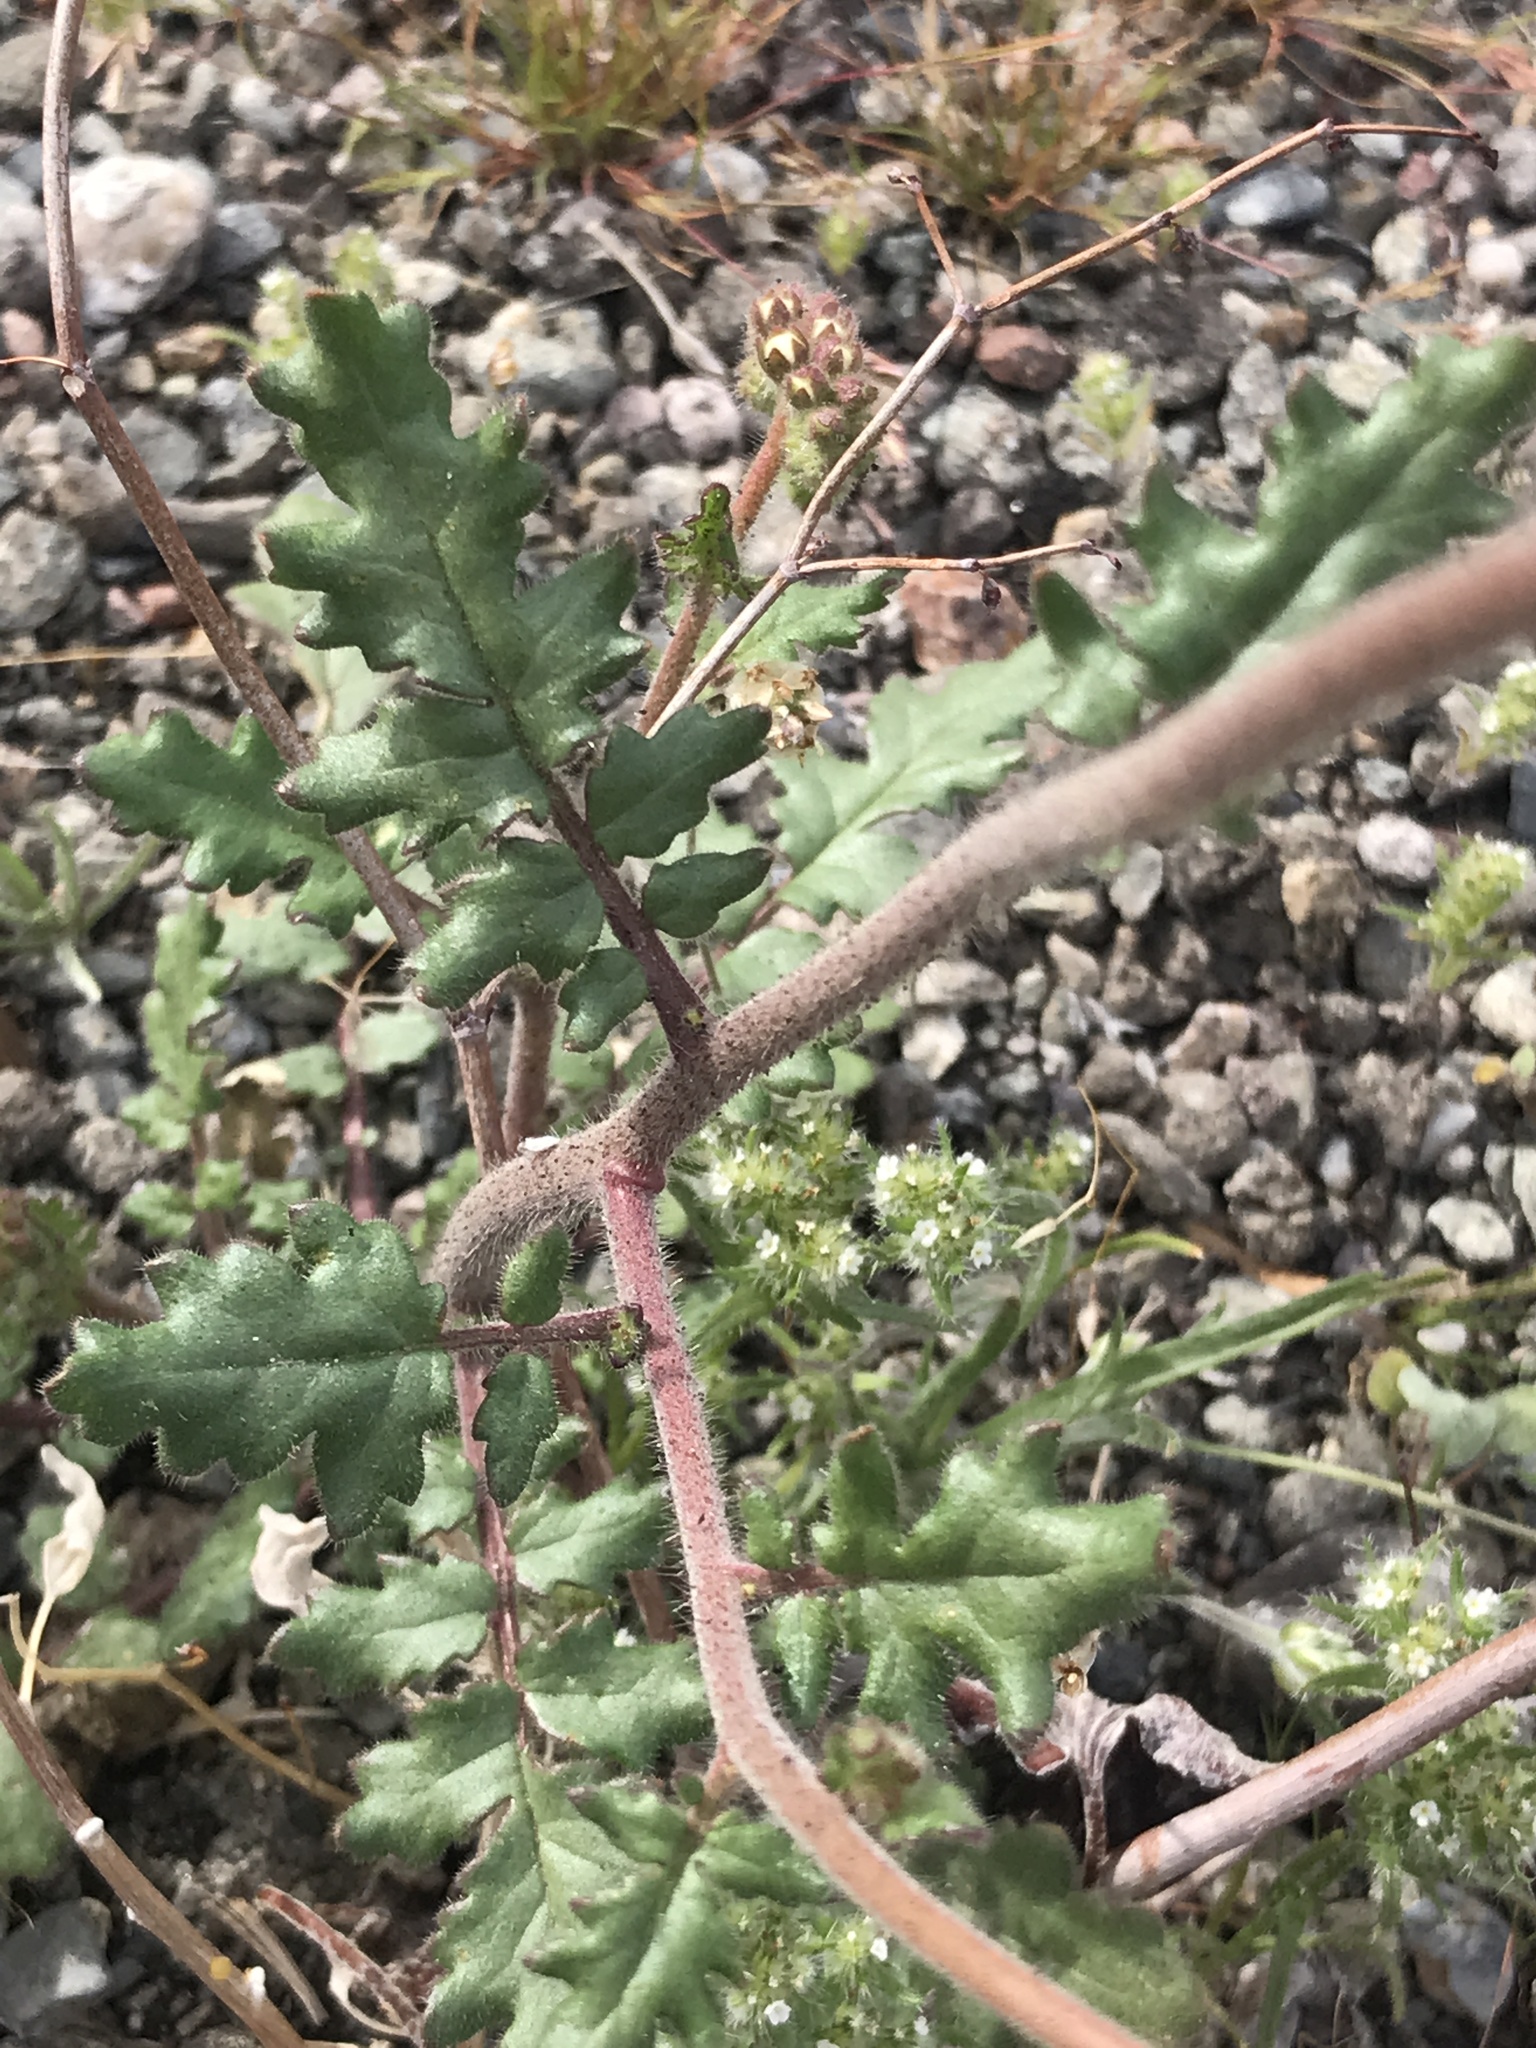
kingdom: Plantae
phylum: Tracheophyta
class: Magnoliopsida
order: Boraginales
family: Hydrophyllaceae
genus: Phacelia
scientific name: Phacelia crenulata
